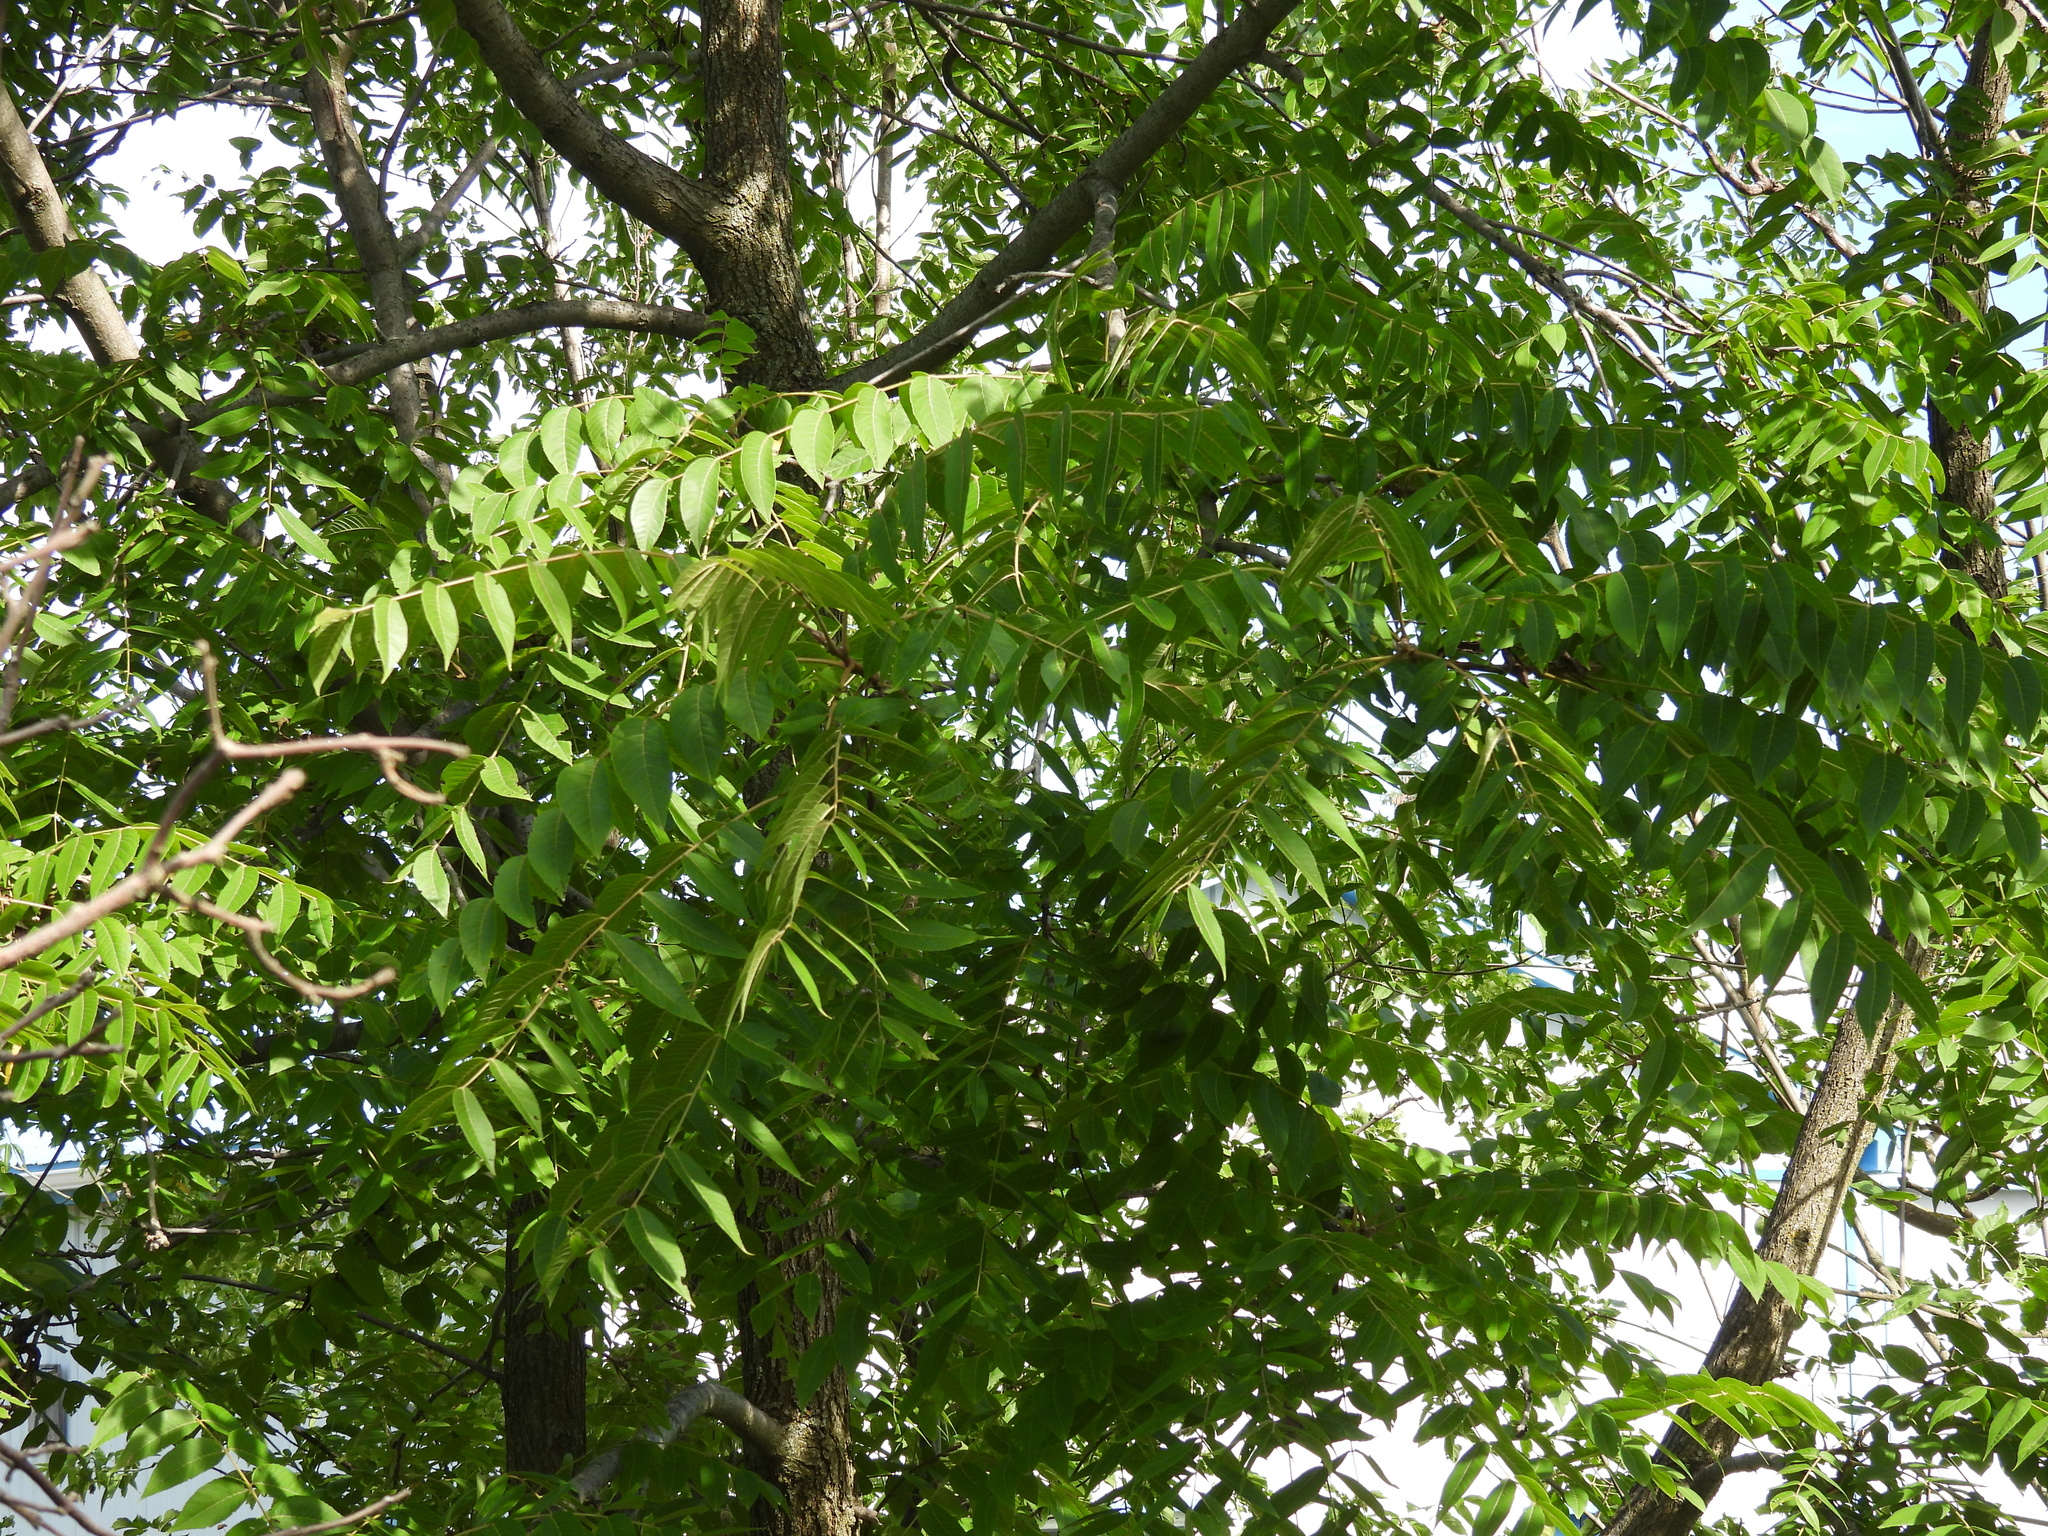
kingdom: Plantae
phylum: Tracheophyta
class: Magnoliopsida
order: Fagales
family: Juglandaceae
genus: Juglans
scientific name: Juglans nigra
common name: Black walnut
